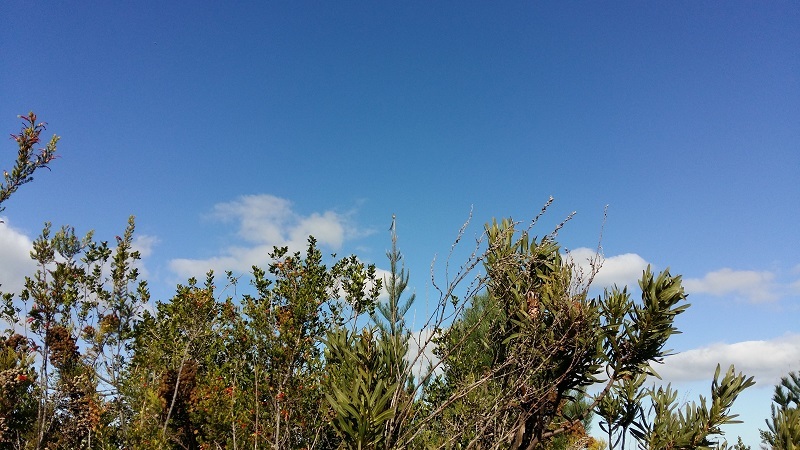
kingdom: Animalia
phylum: Chordata
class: Aves
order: Passeriformes
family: Promeropidae
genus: Promerops
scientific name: Promerops cafer
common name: Cape sugarbird
